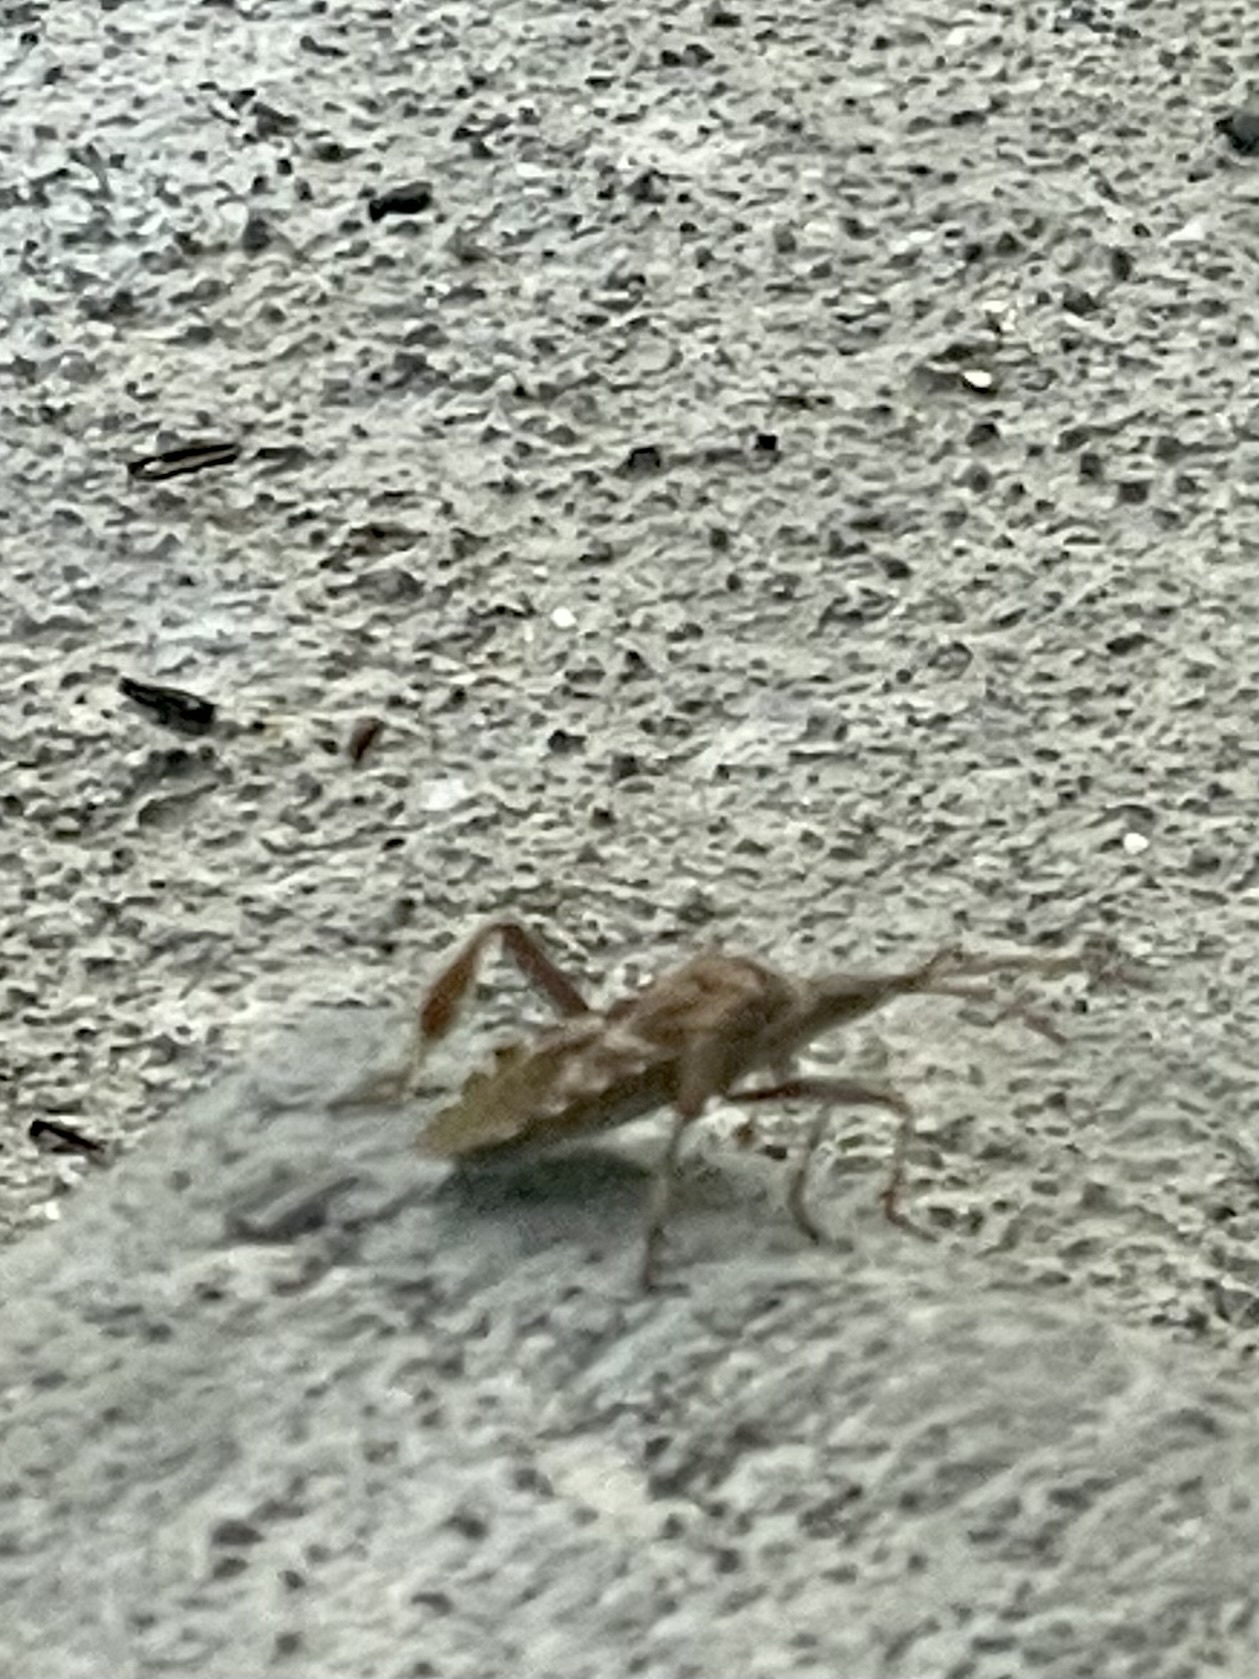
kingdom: Animalia
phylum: Arthropoda
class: Insecta
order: Hemiptera
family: Coreidae
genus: Leptoglossus
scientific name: Leptoglossus occidentalis
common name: Western conifer-seed bug
